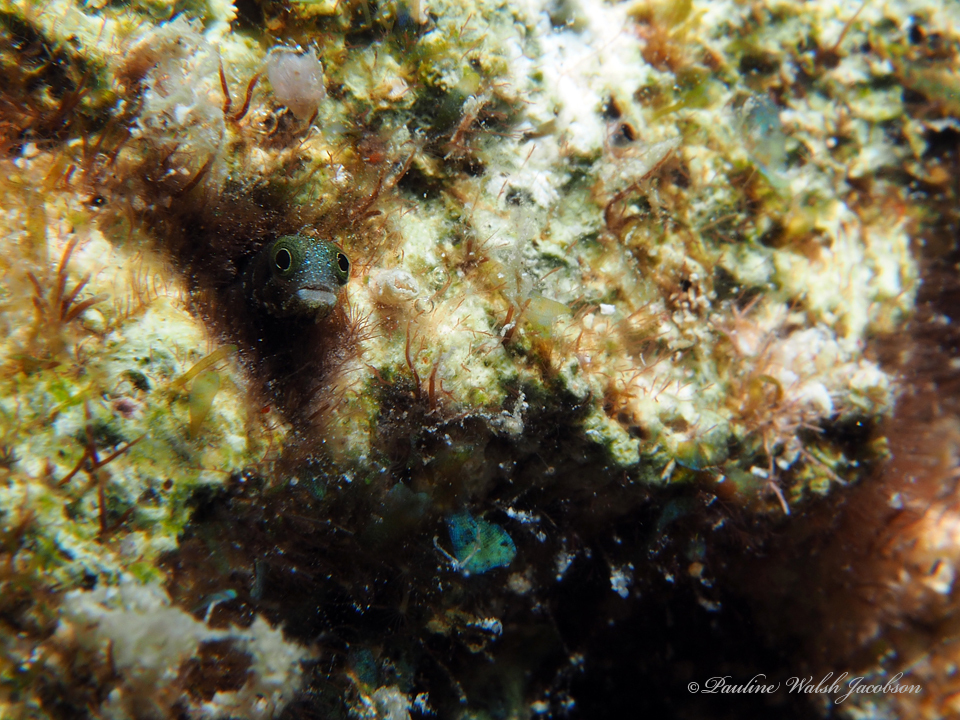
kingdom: Animalia
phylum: Chordata
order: Perciformes
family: Chaenopsidae
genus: Acanthemblemaria
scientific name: Acanthemblemaria spinosa
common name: Spinyhead blenny
